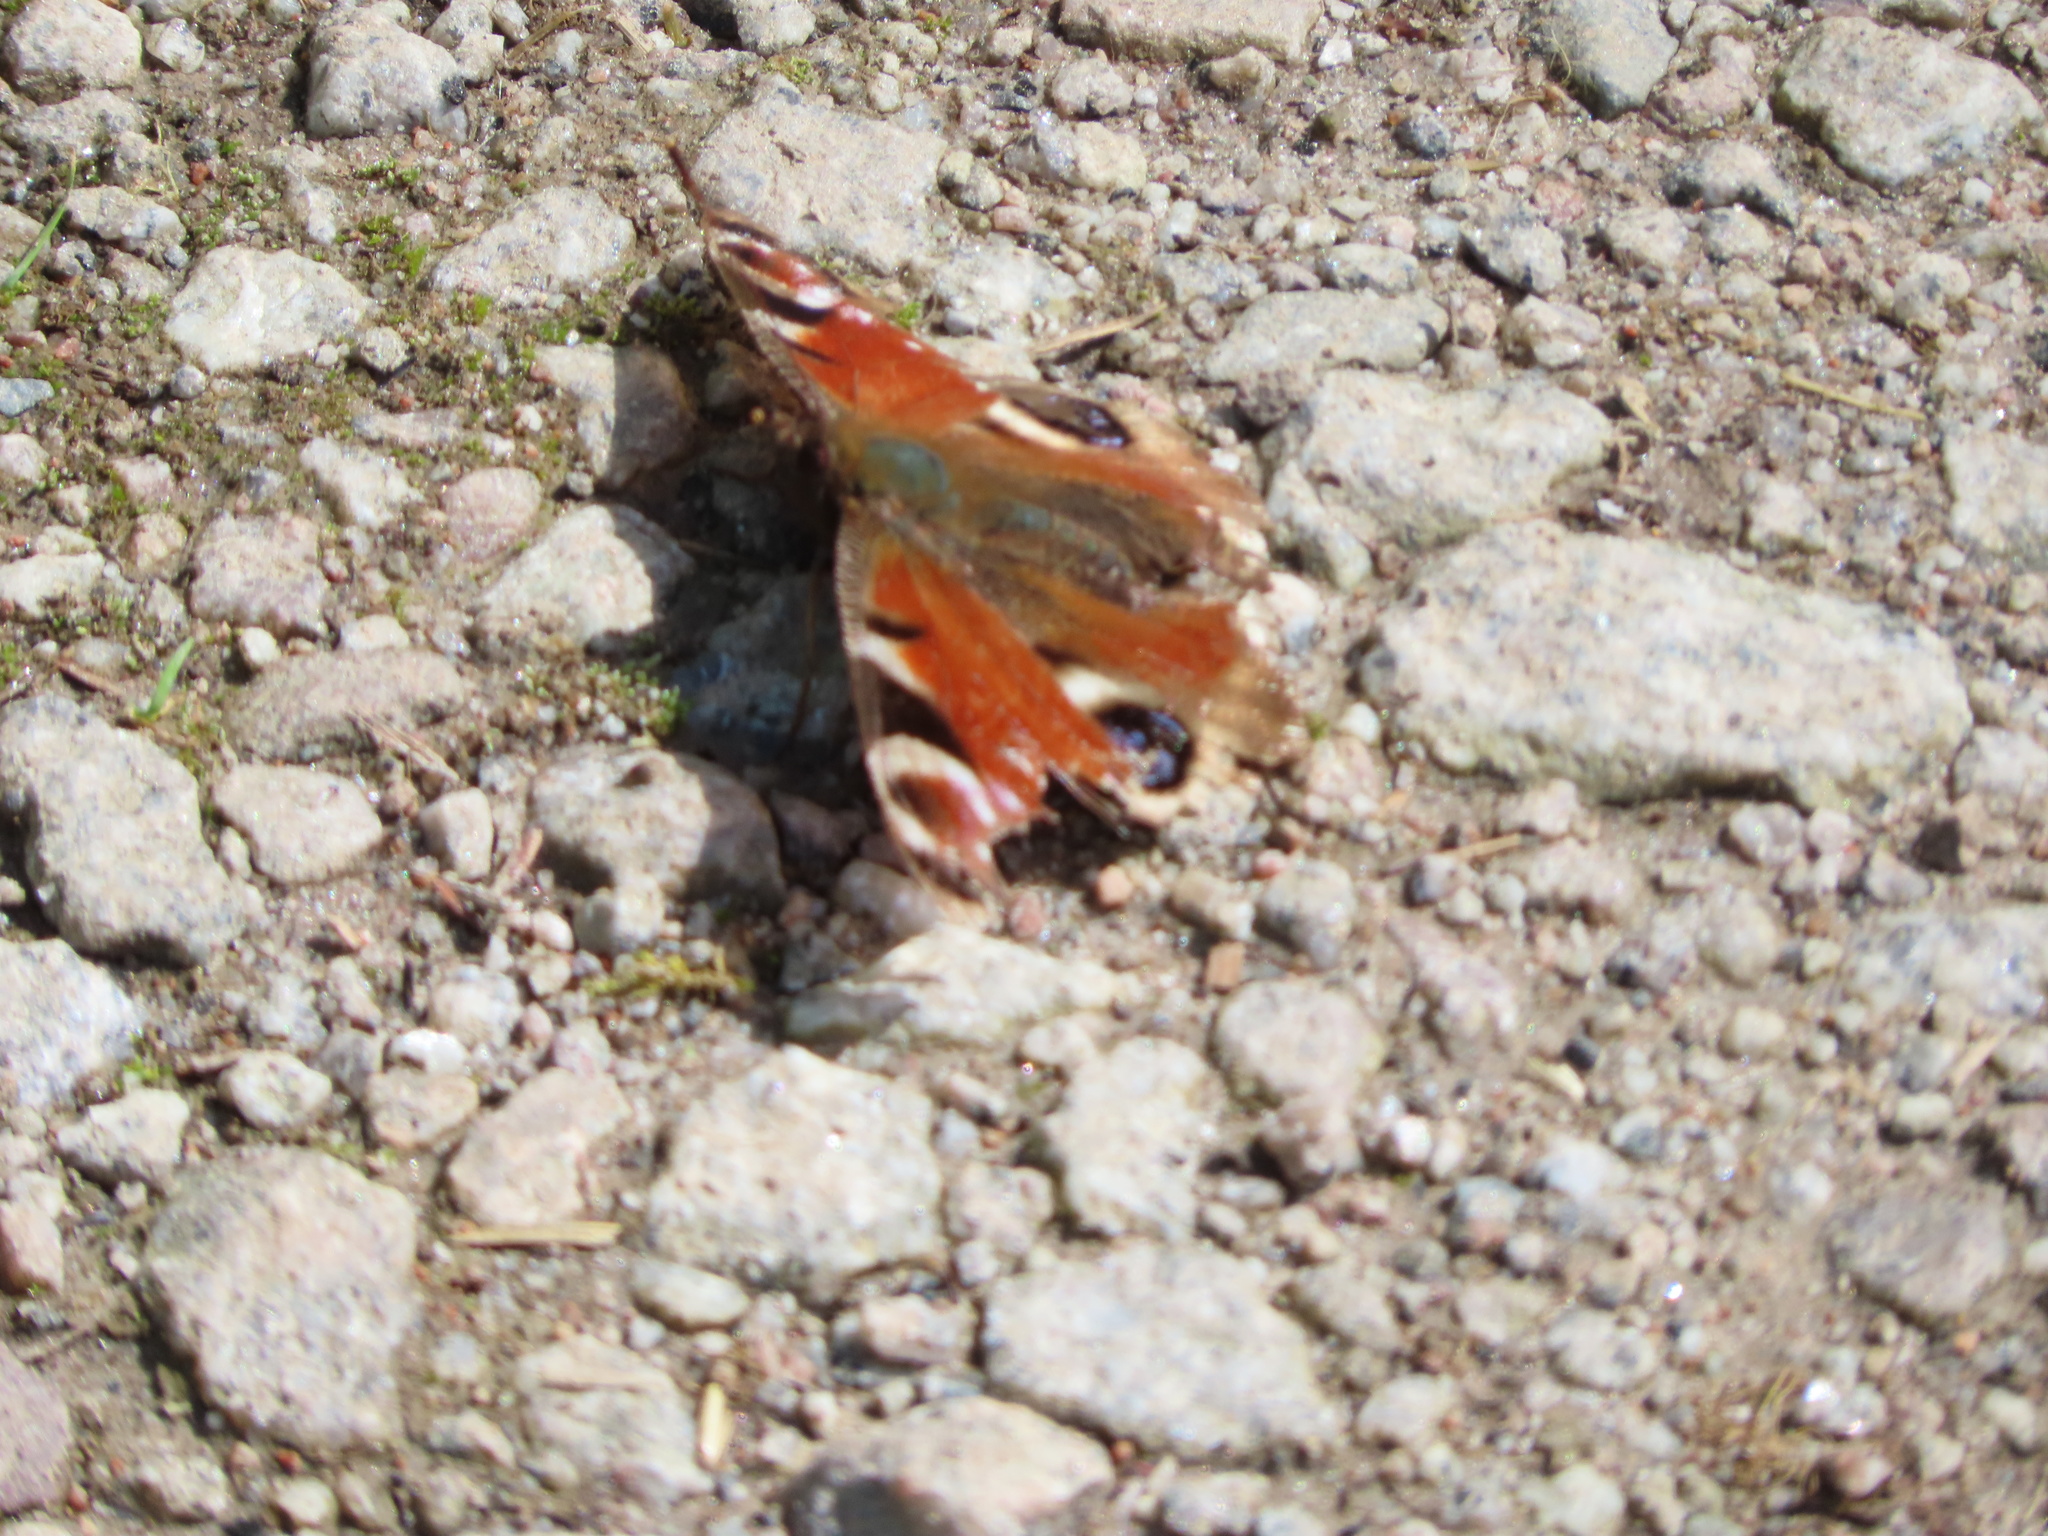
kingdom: Animalia
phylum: Arthropoda
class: Insecta
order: Lepidoptera
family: Nymphalidae
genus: Aglais
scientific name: Aglais io
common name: Peacock
